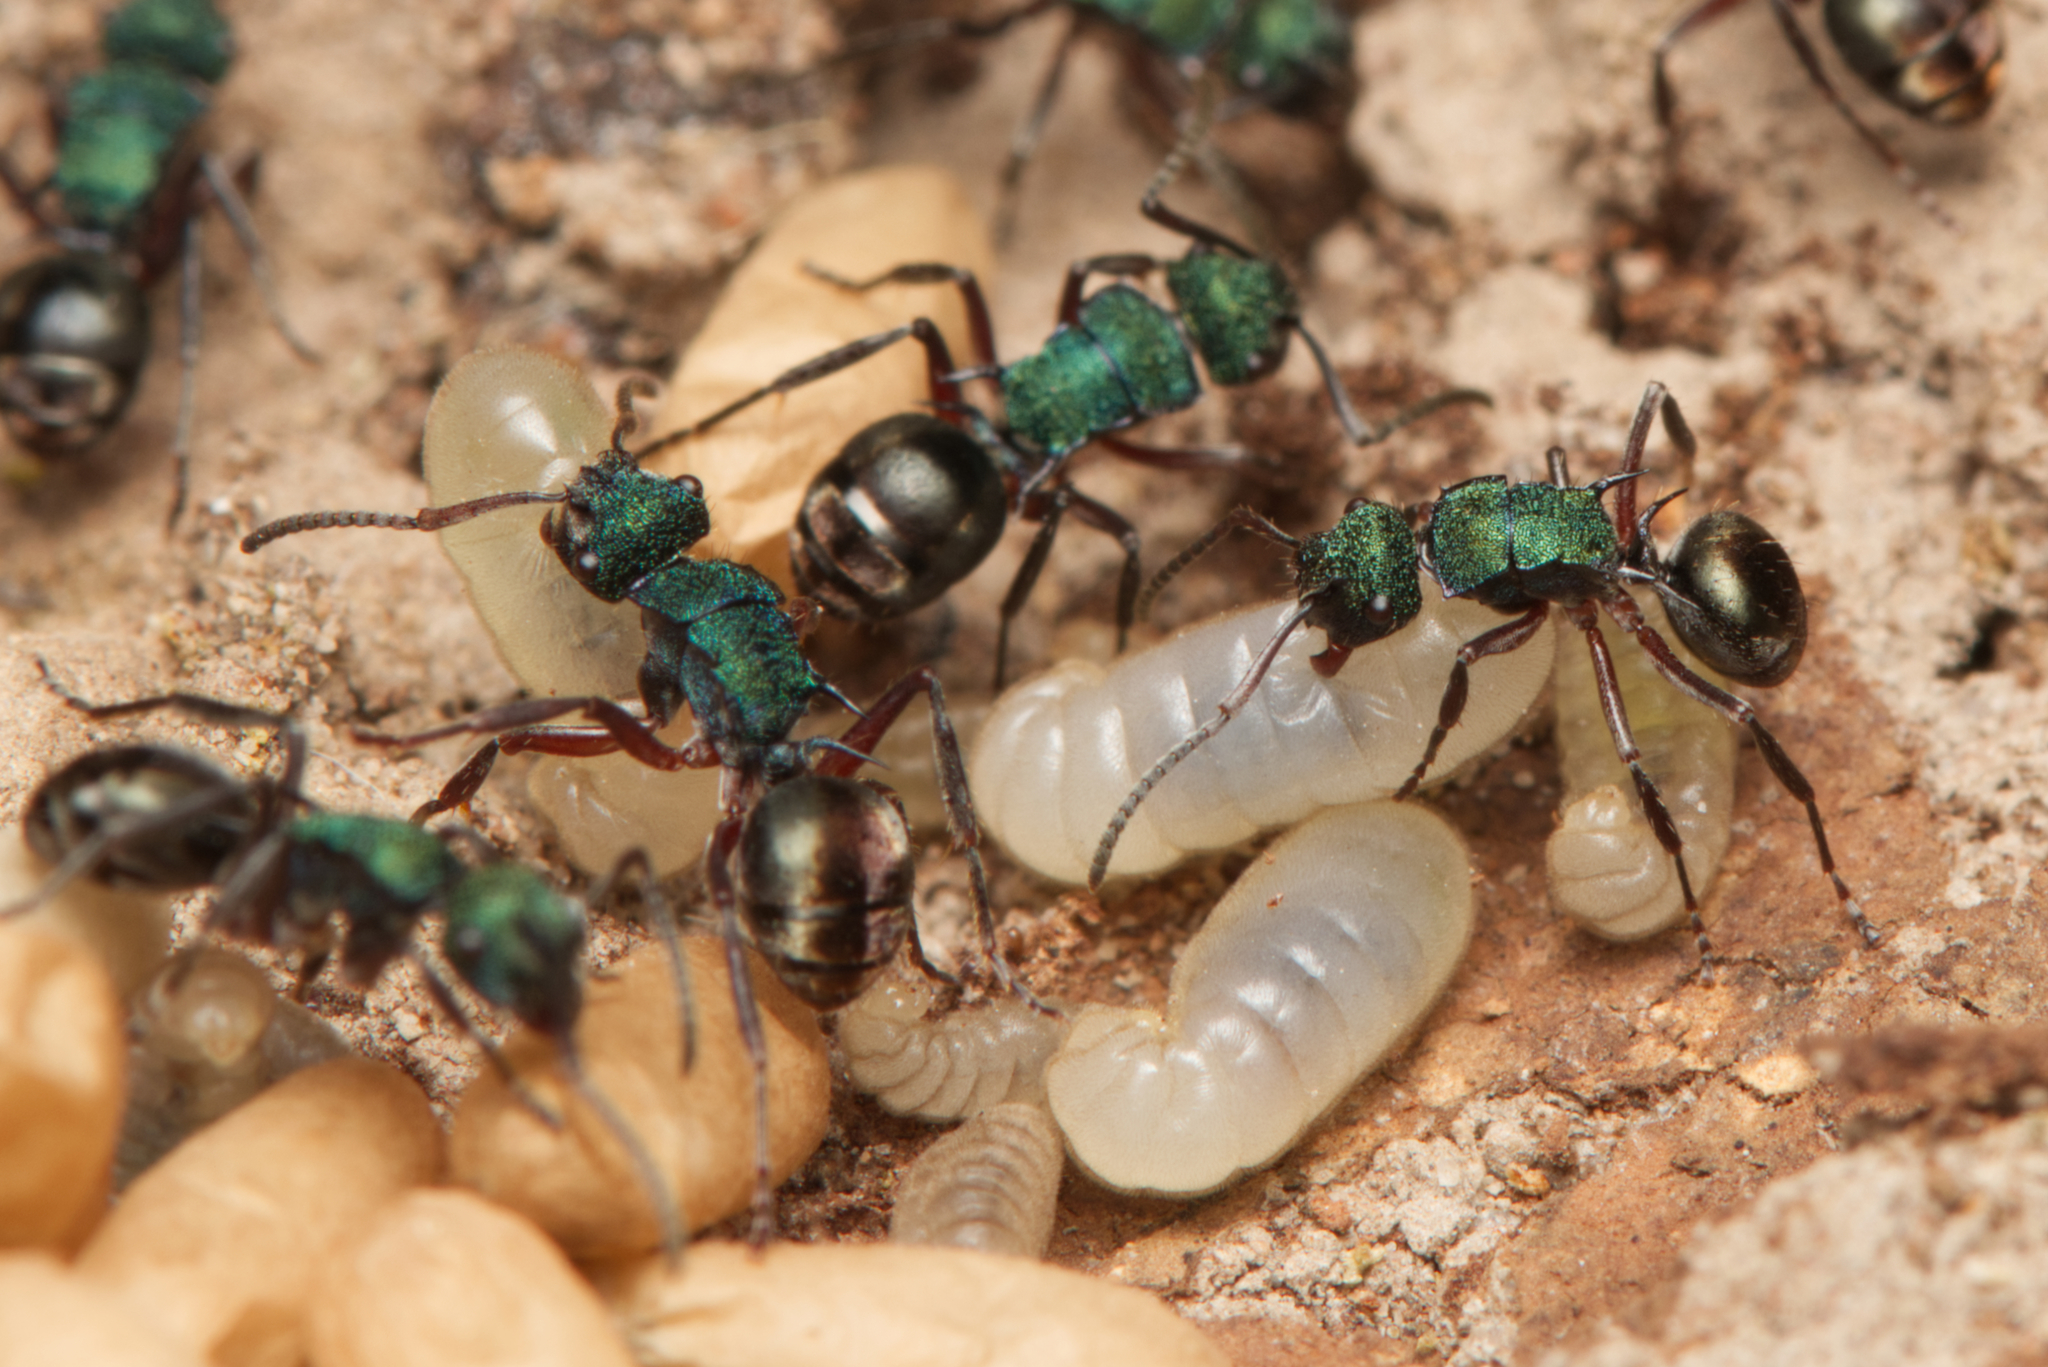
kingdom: Animalia
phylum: Arthropoda
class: Insecta
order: Hymenoptera
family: Formicidae
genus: Polyrhachis
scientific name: Polyrhachis hookeri
